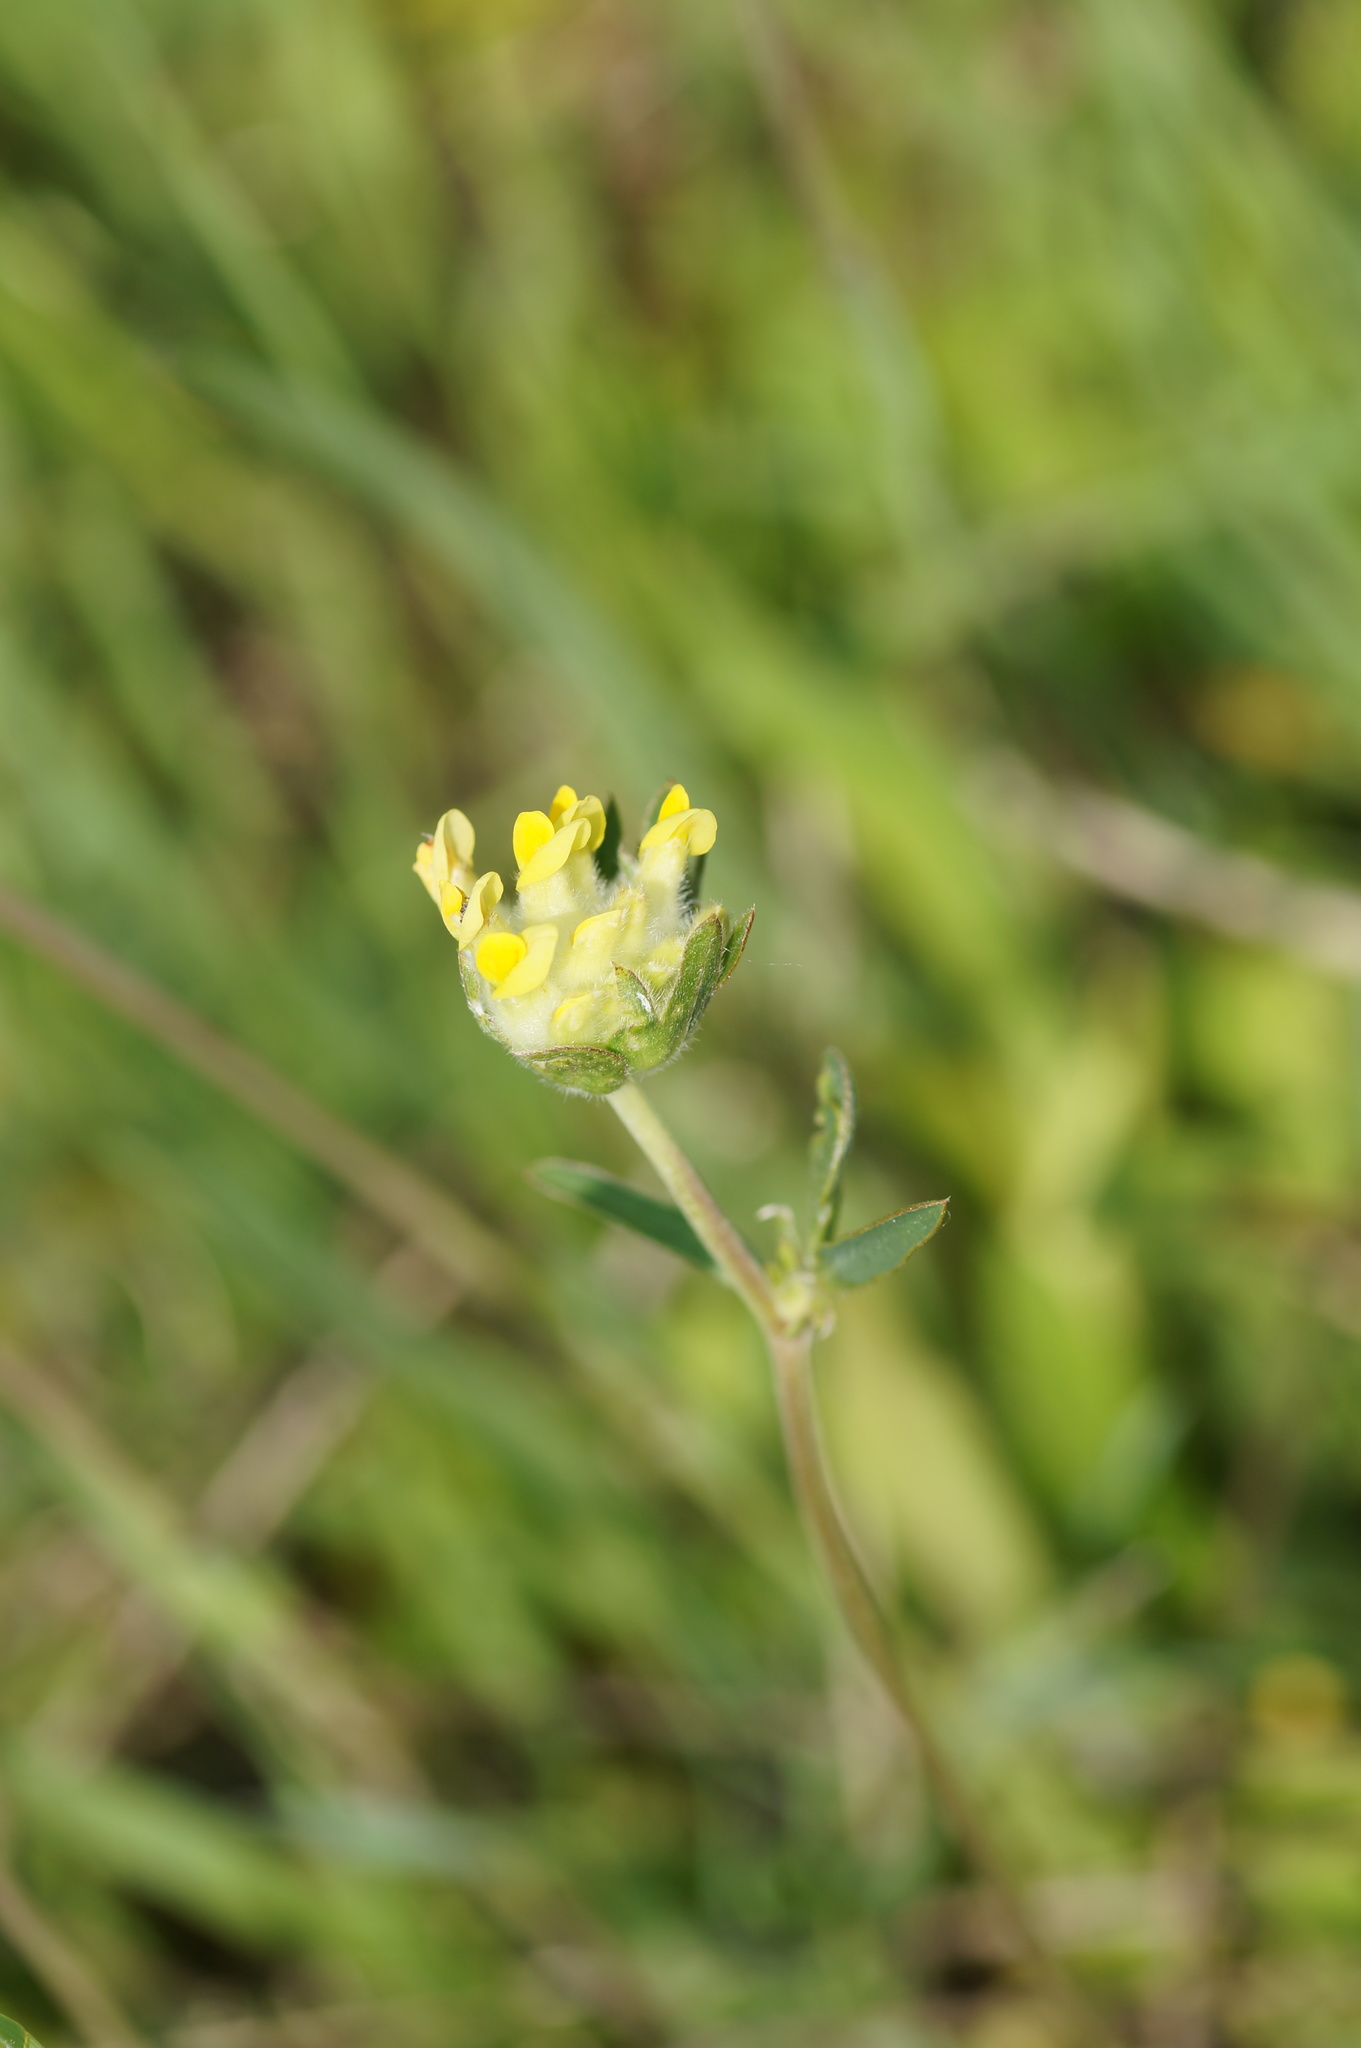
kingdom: Plantae
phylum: Tracheophyta
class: Magnoliopsida
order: Fabales
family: Fabaceae
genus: Anthyllis
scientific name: Anthyllis vulneraria
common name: Kidney vetch
